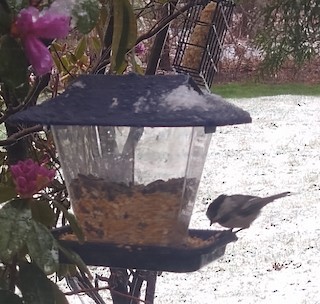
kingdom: Animalia
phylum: Chordata
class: Aves
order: Passeriformes
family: Paridae
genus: Poecile
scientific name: Poecile atricapillus
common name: Black-capped chickadee
